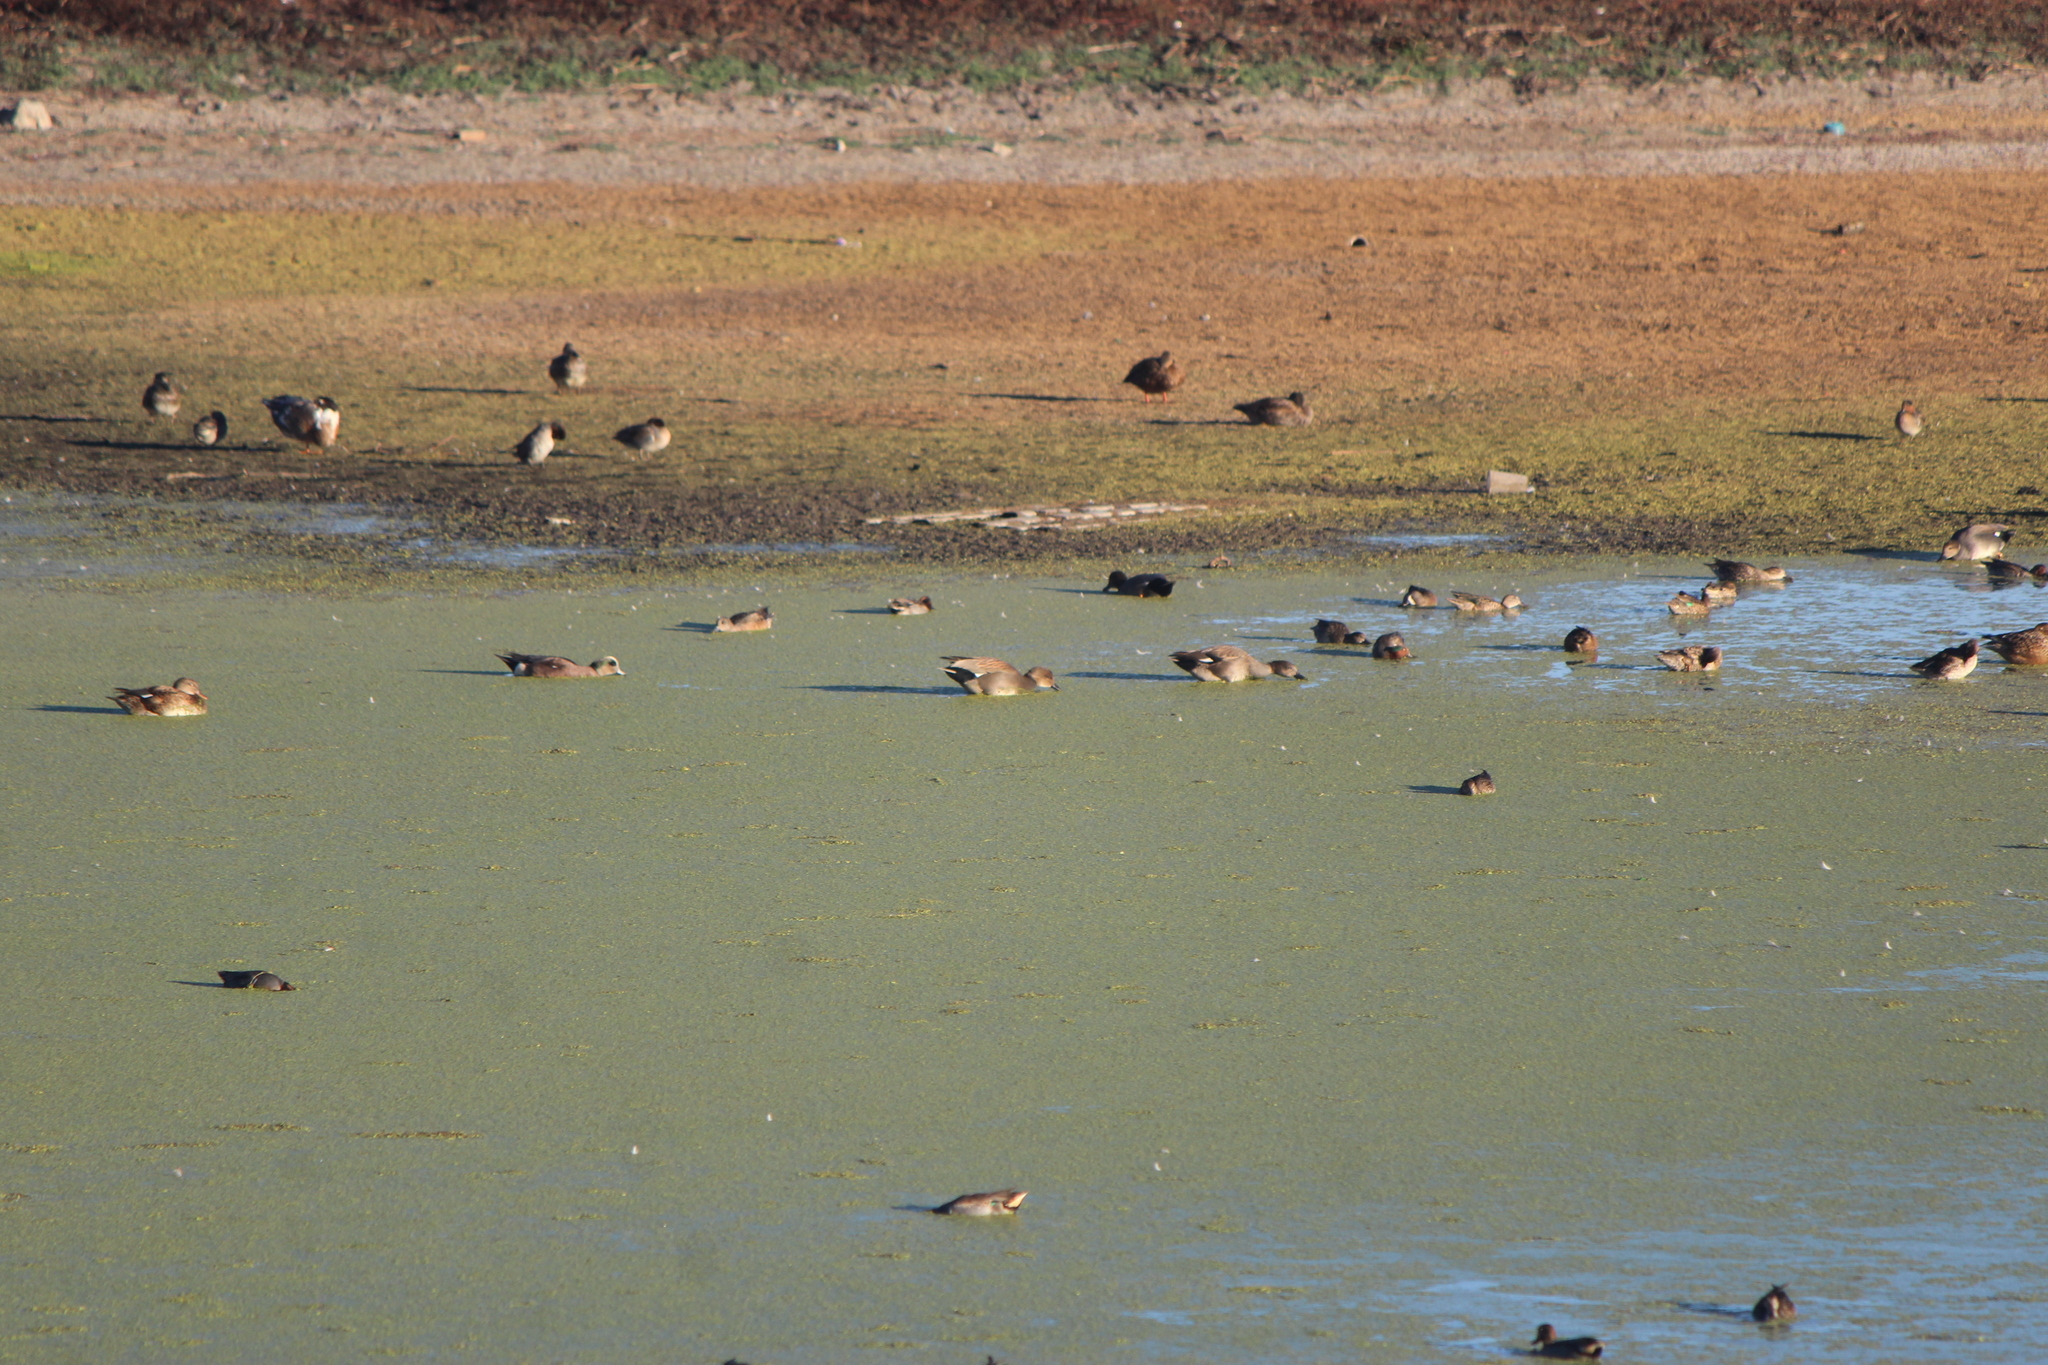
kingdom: Animalia
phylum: Chordata
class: Aves
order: Anseriformes
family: Anatidae
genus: Mareca
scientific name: Mareca strepera
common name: Gadwall
